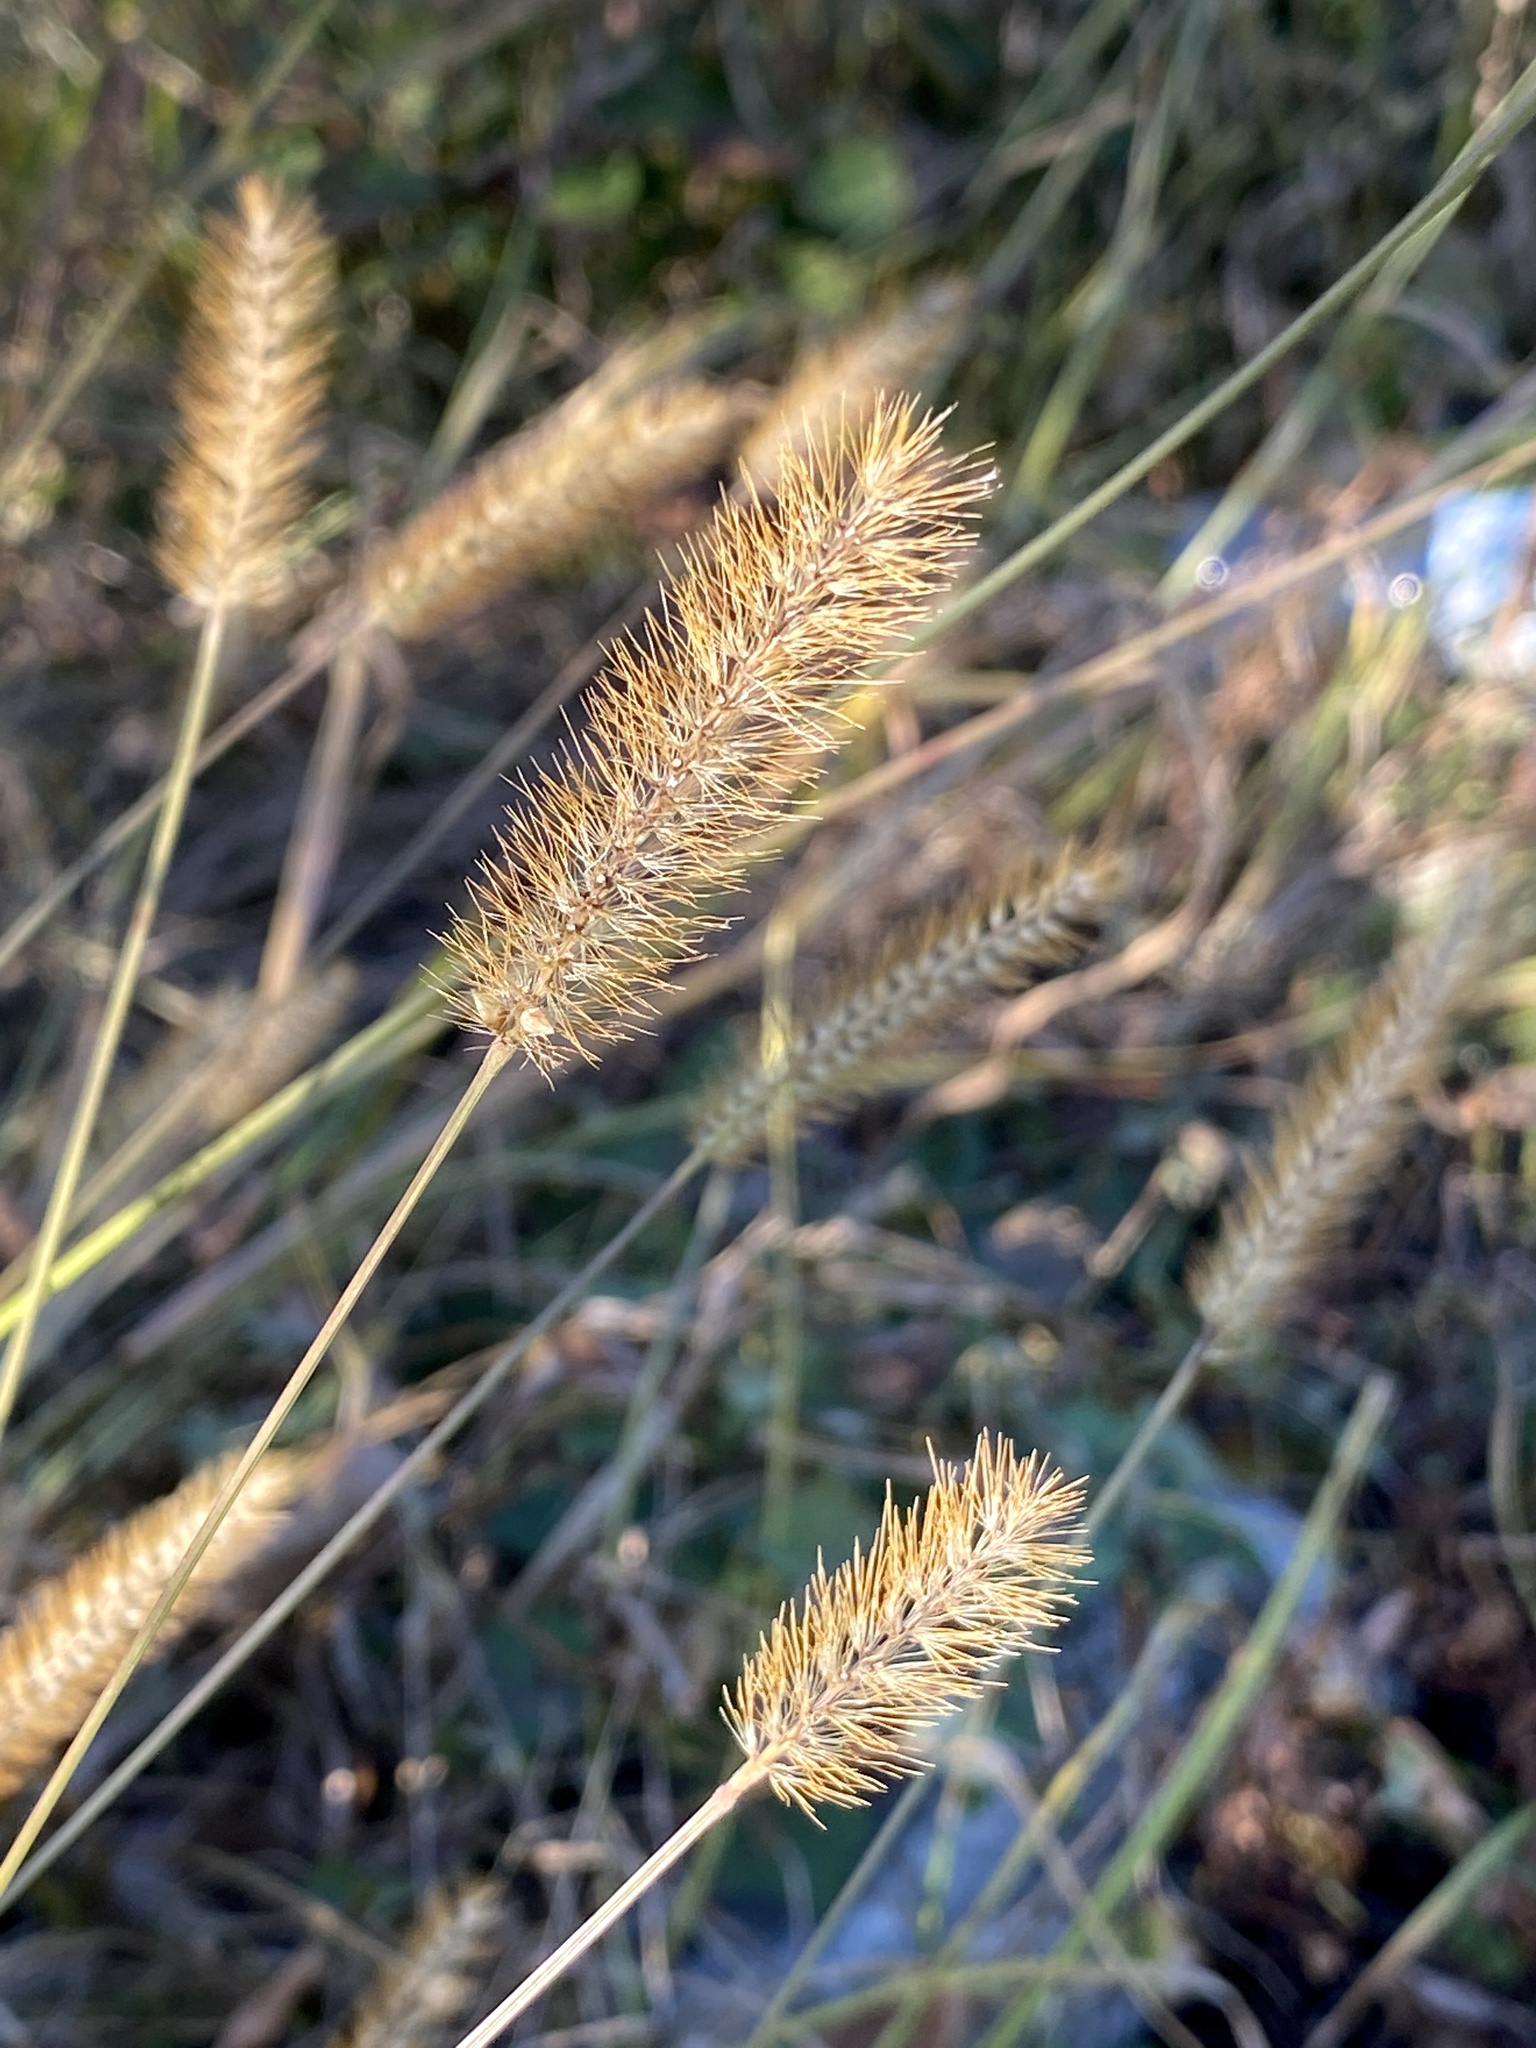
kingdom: Plantae
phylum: Tracheophyta
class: Liliopsida
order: Poales
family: Poaceae
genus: Setaria
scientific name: Setaria pumila
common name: Yellow bristle-grass
